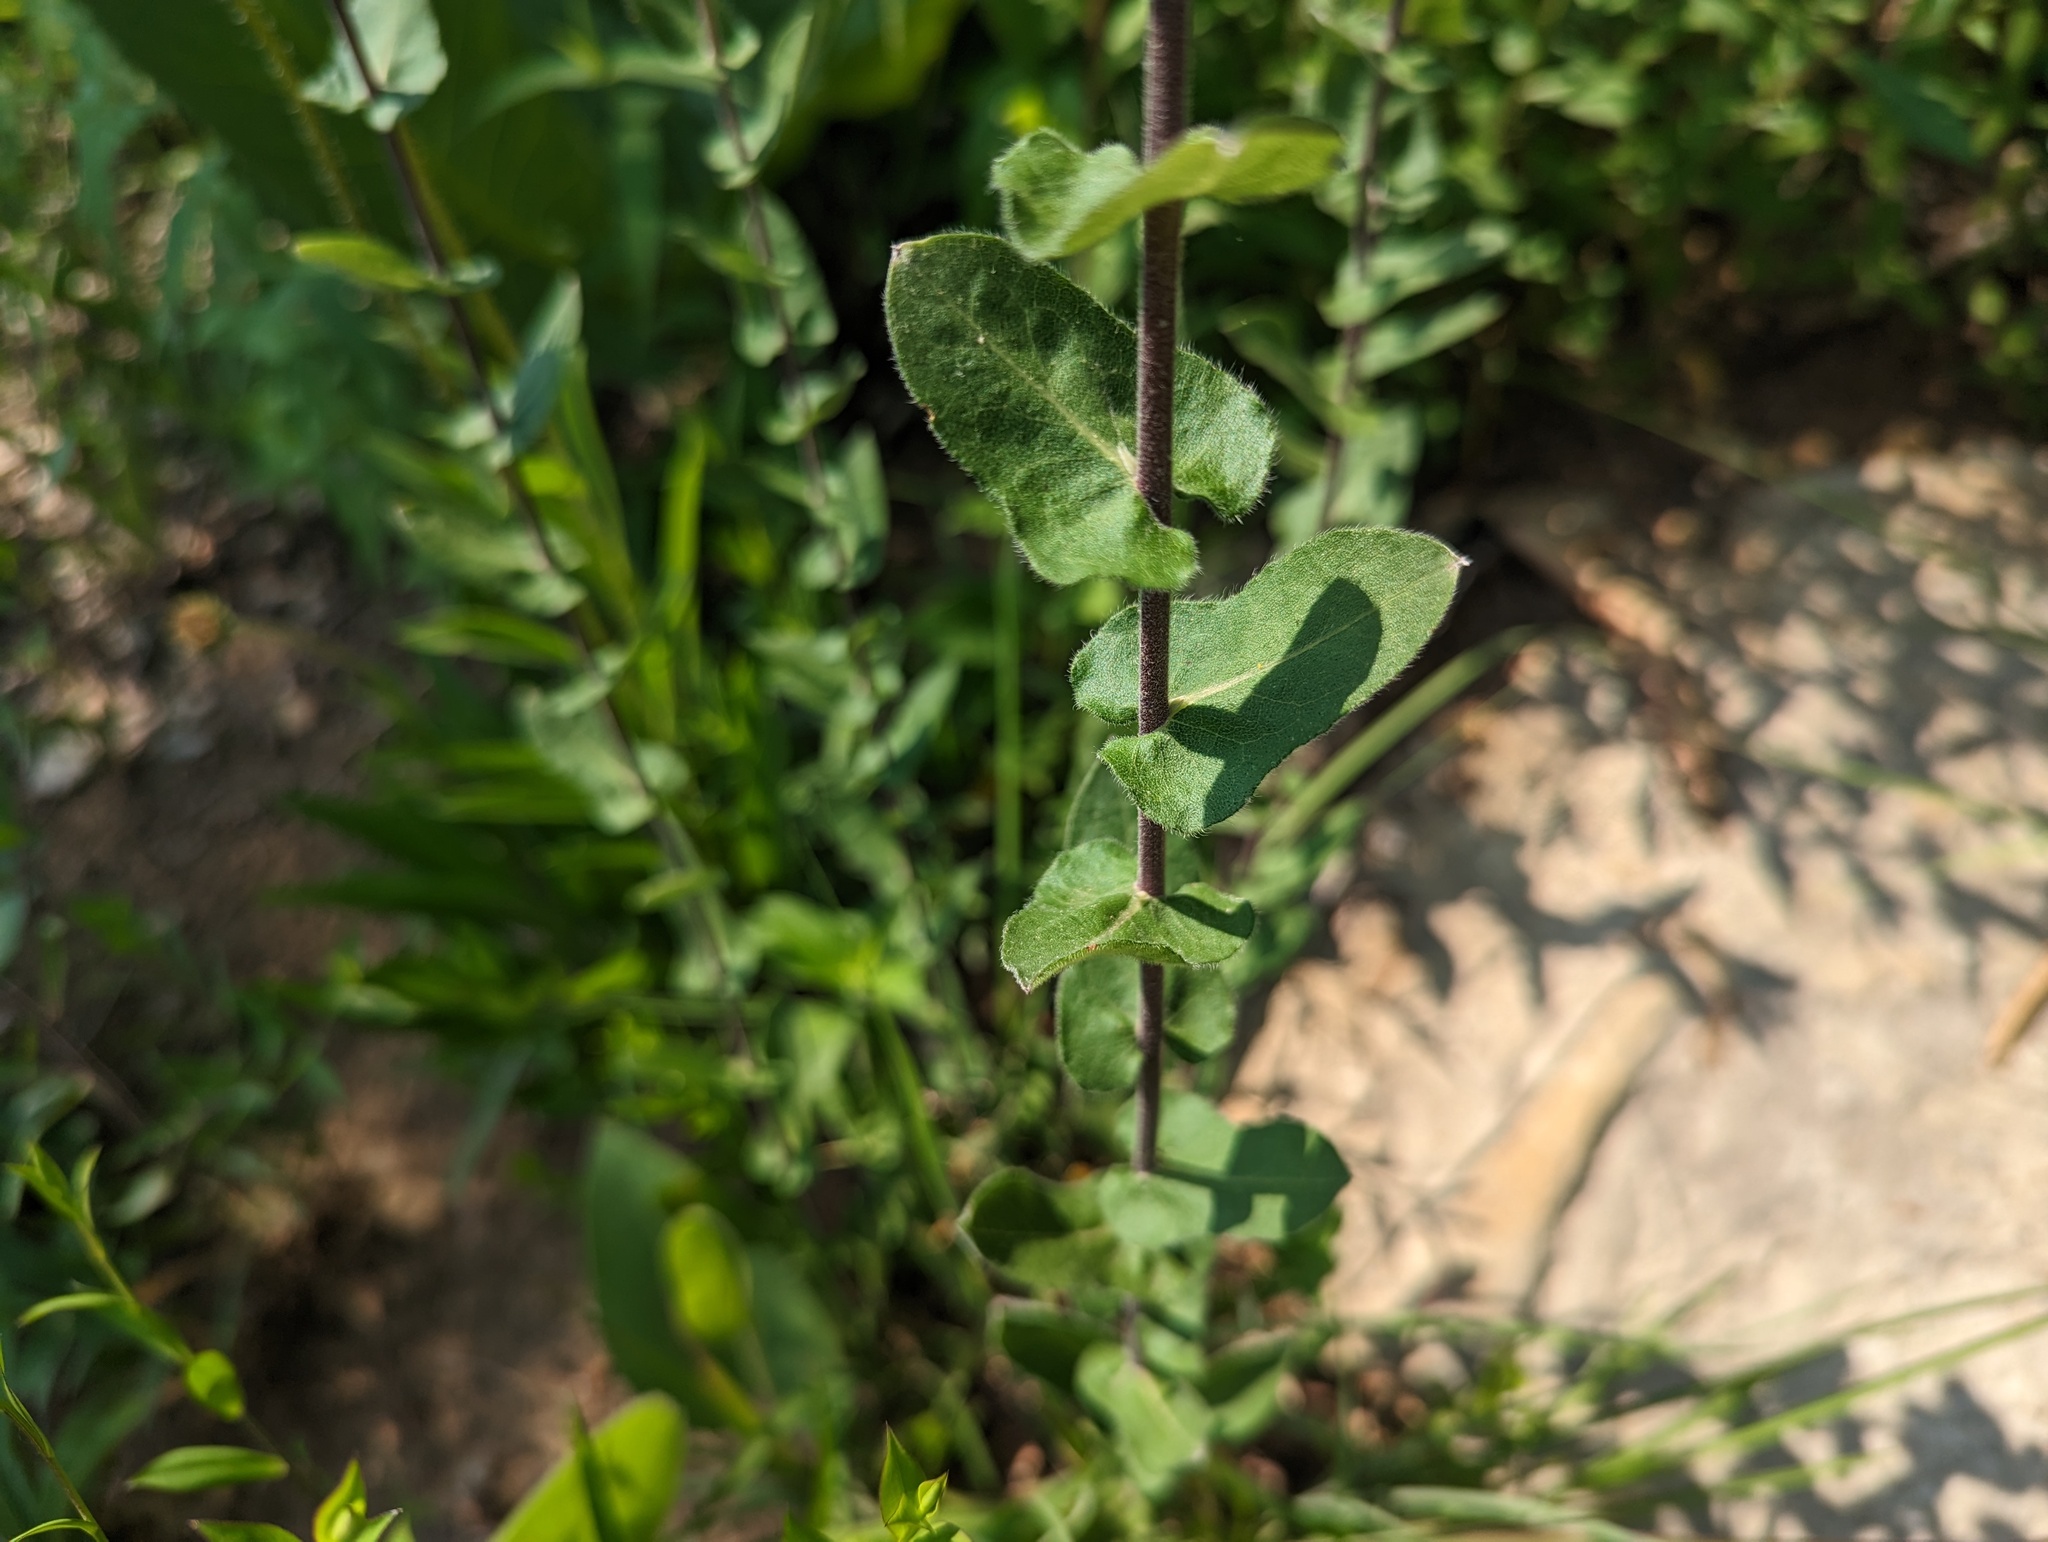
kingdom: Plantae
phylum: Tracheophyta
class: Magnoliopsida
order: Asterales
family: Asteraceae
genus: Symphyotrichum
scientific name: Symphyotrichum patens
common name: Late purple aster
